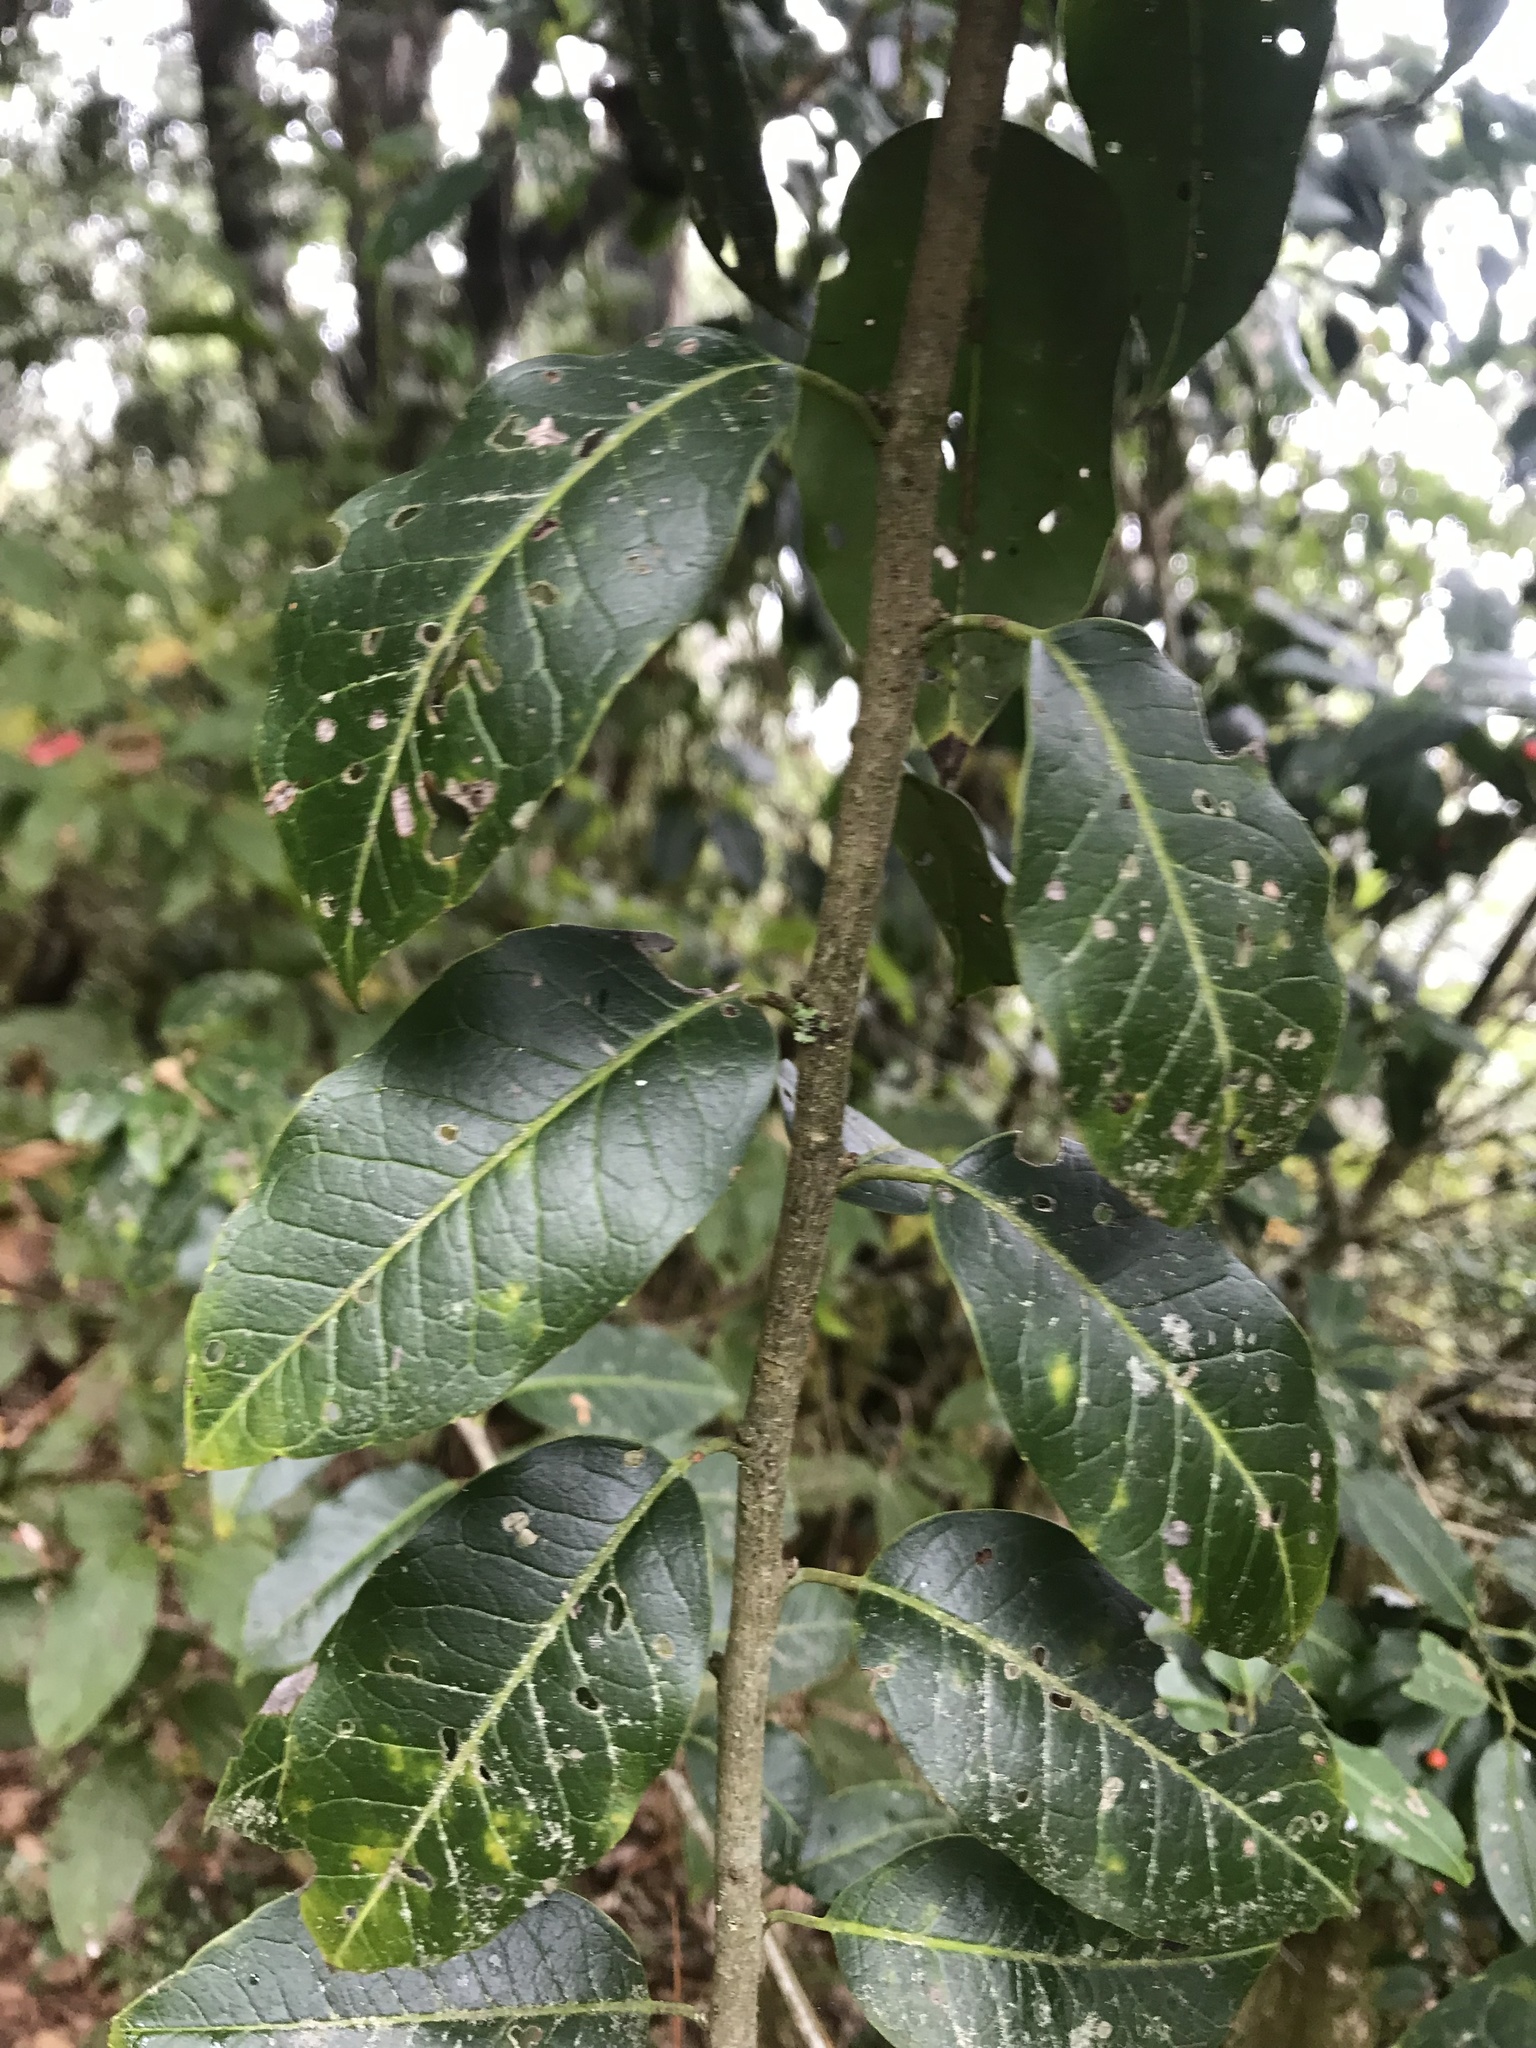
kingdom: Plantae
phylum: Tracheophyta
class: Magnoliopsida
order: Aquifoliales
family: Aquifoliaceae
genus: Ilex
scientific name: Ilex pedunculosa
